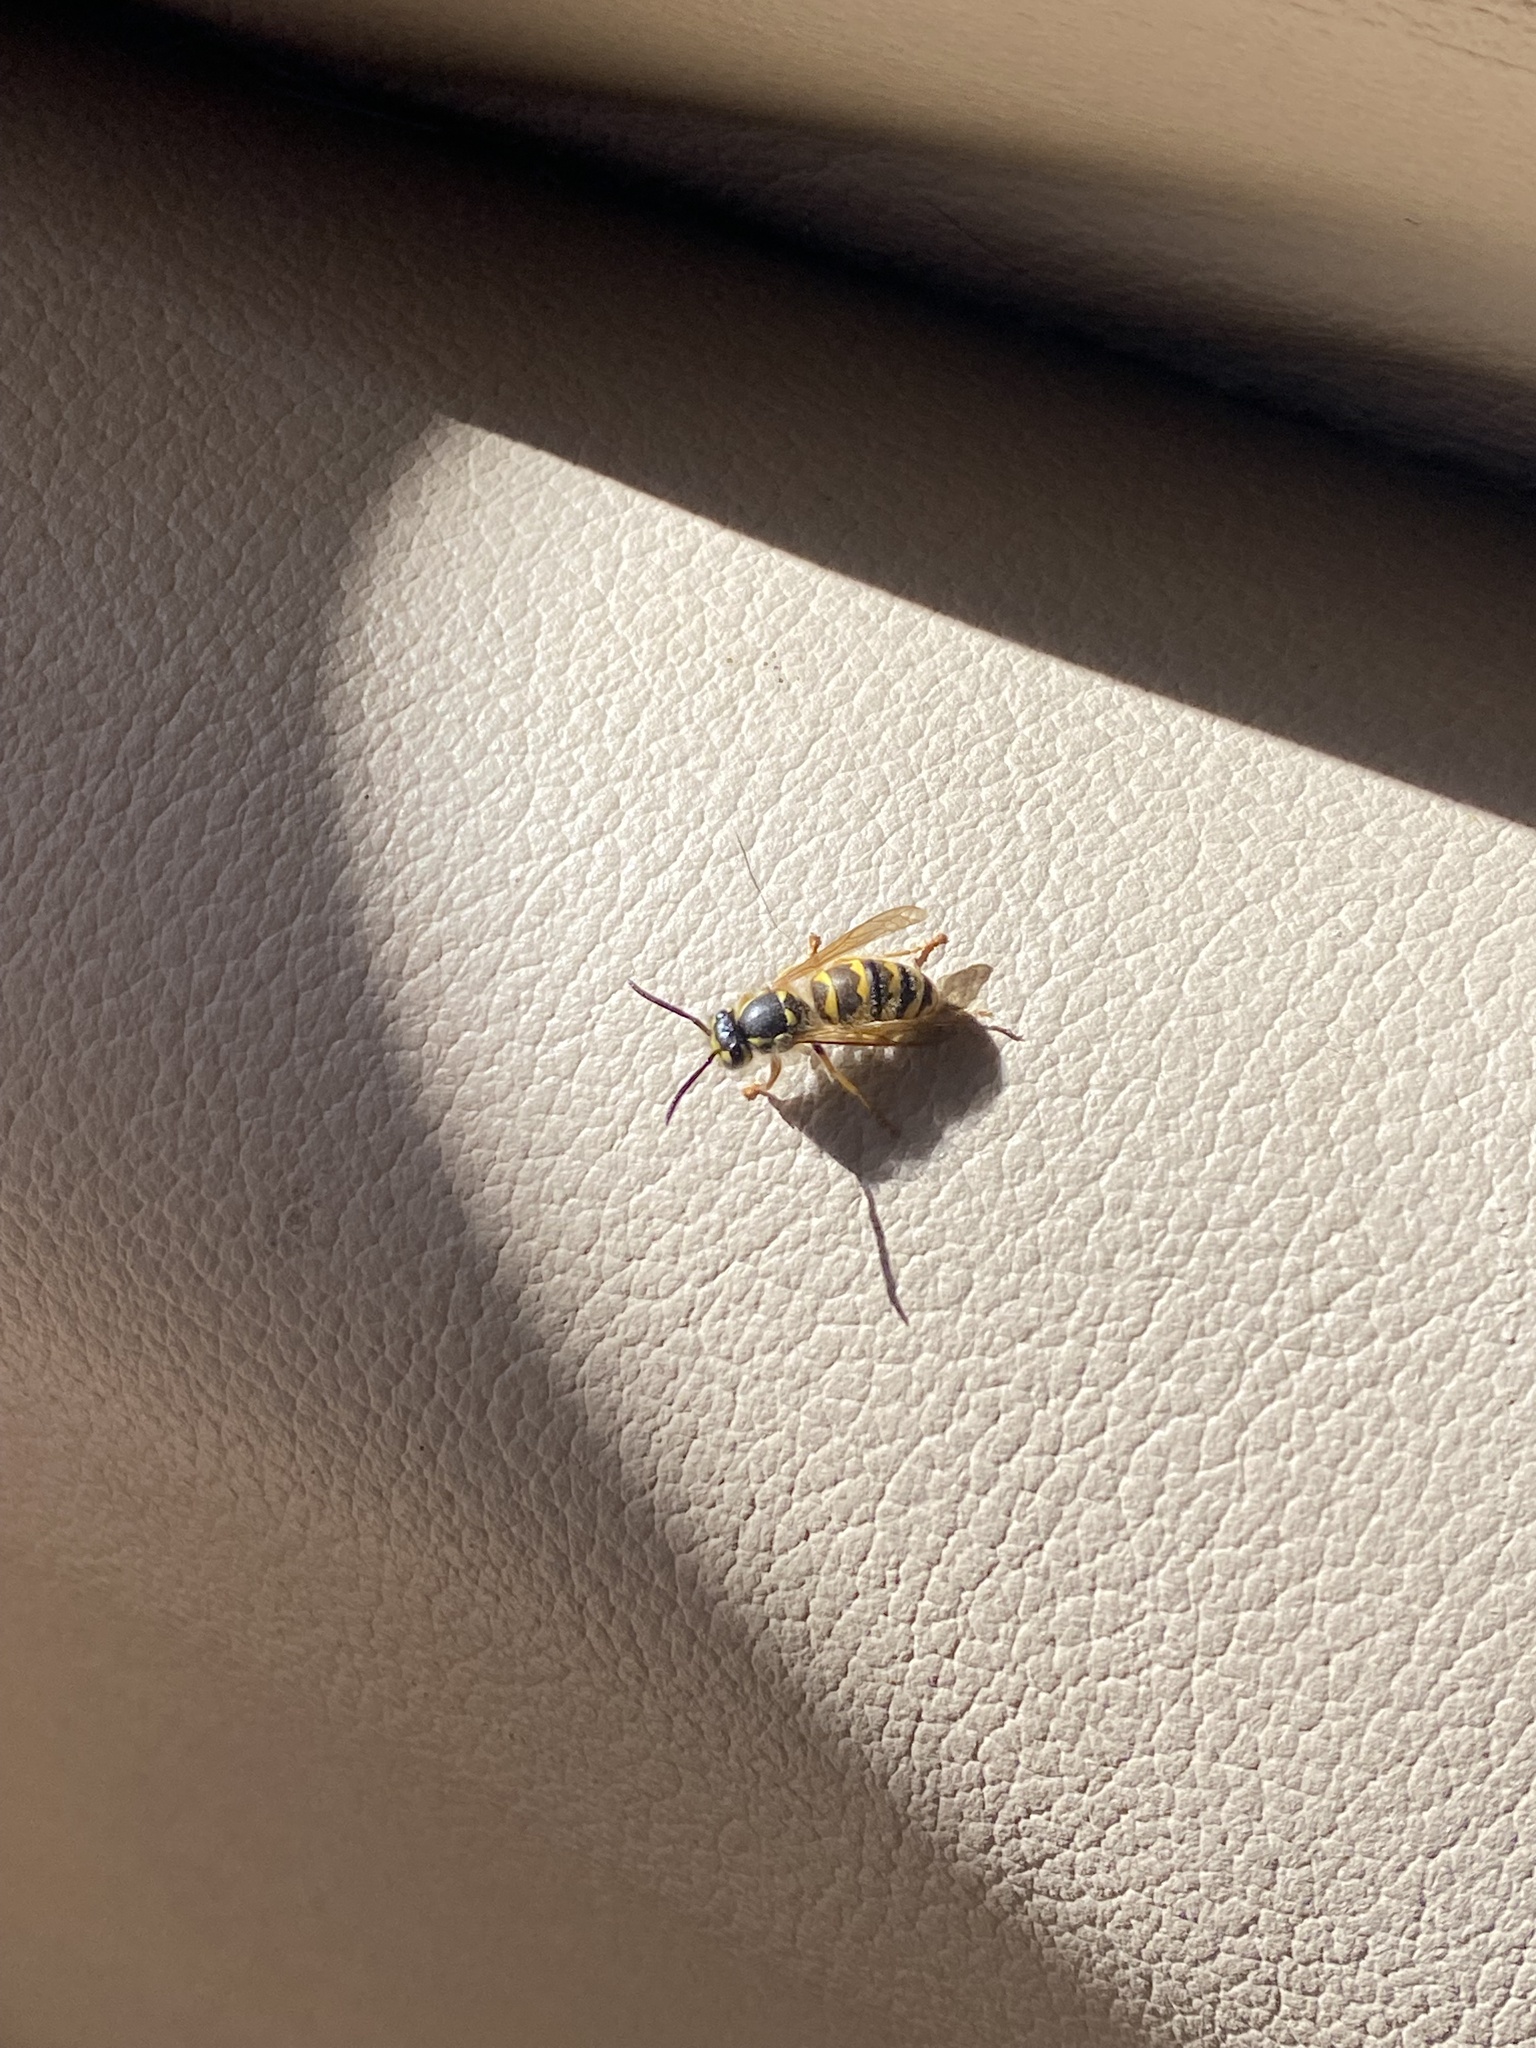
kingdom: Animalia
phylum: Arthropoda
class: Insecta
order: Hymenoptera
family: Vespidae
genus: Vespula
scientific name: Vespula flavopilosa
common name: Downy yellowjacket
